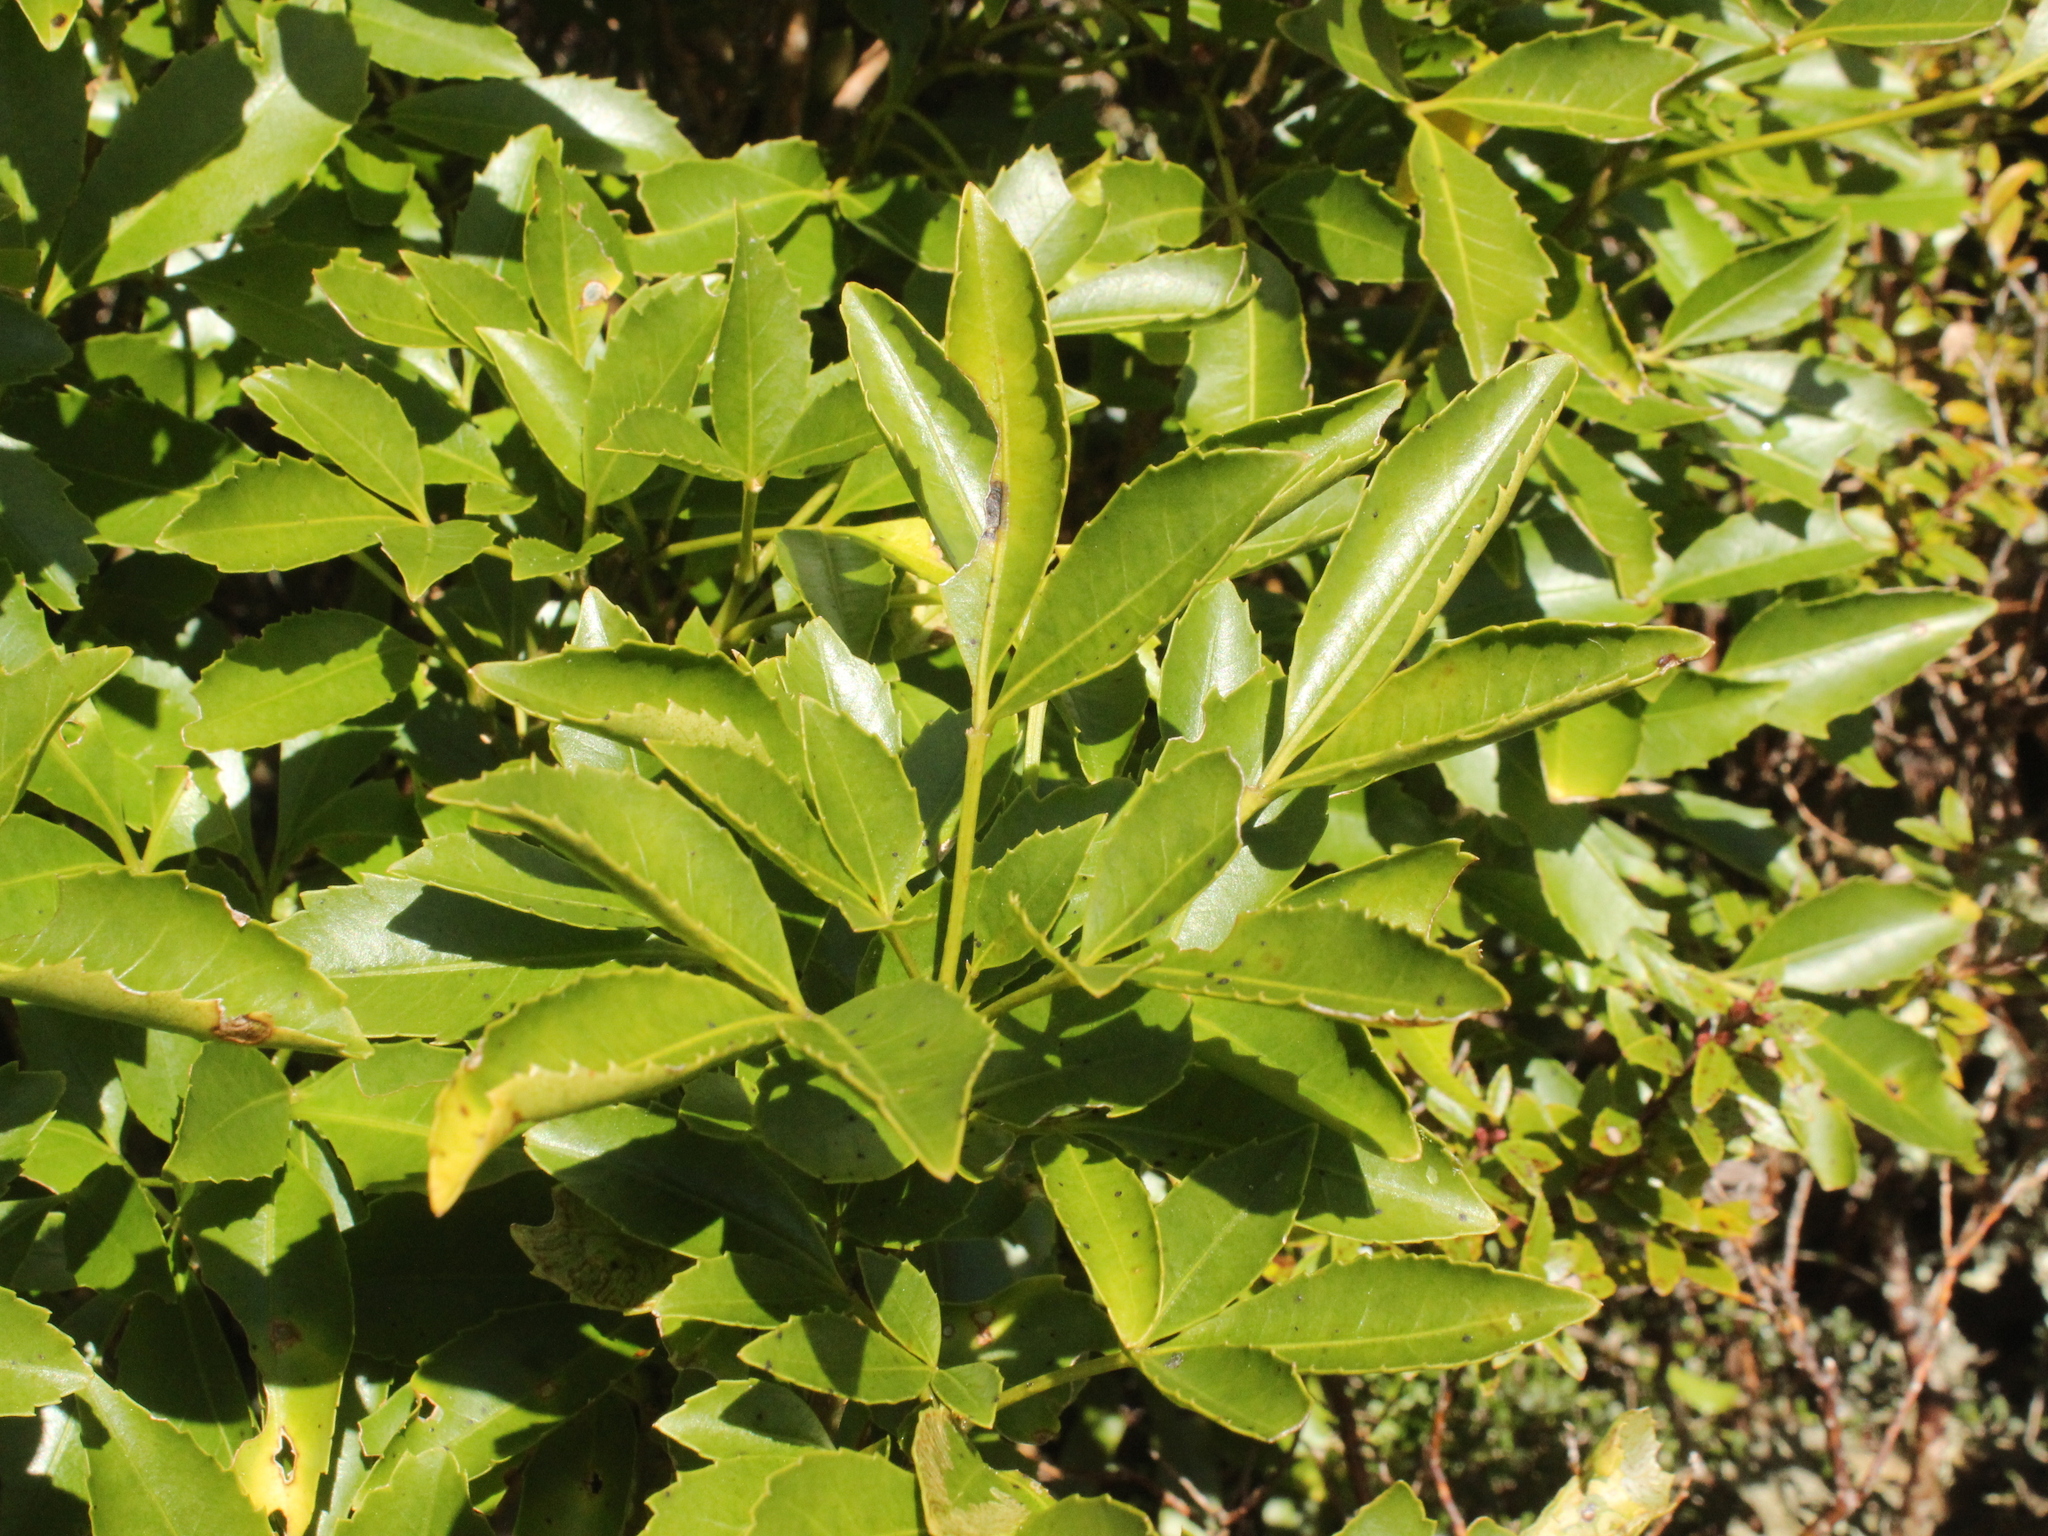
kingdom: Plantae
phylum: Tracheophyta
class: Magnoliopsida
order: Apiales
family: Araliaceae
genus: Raukaua
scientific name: Raukaua simplex
